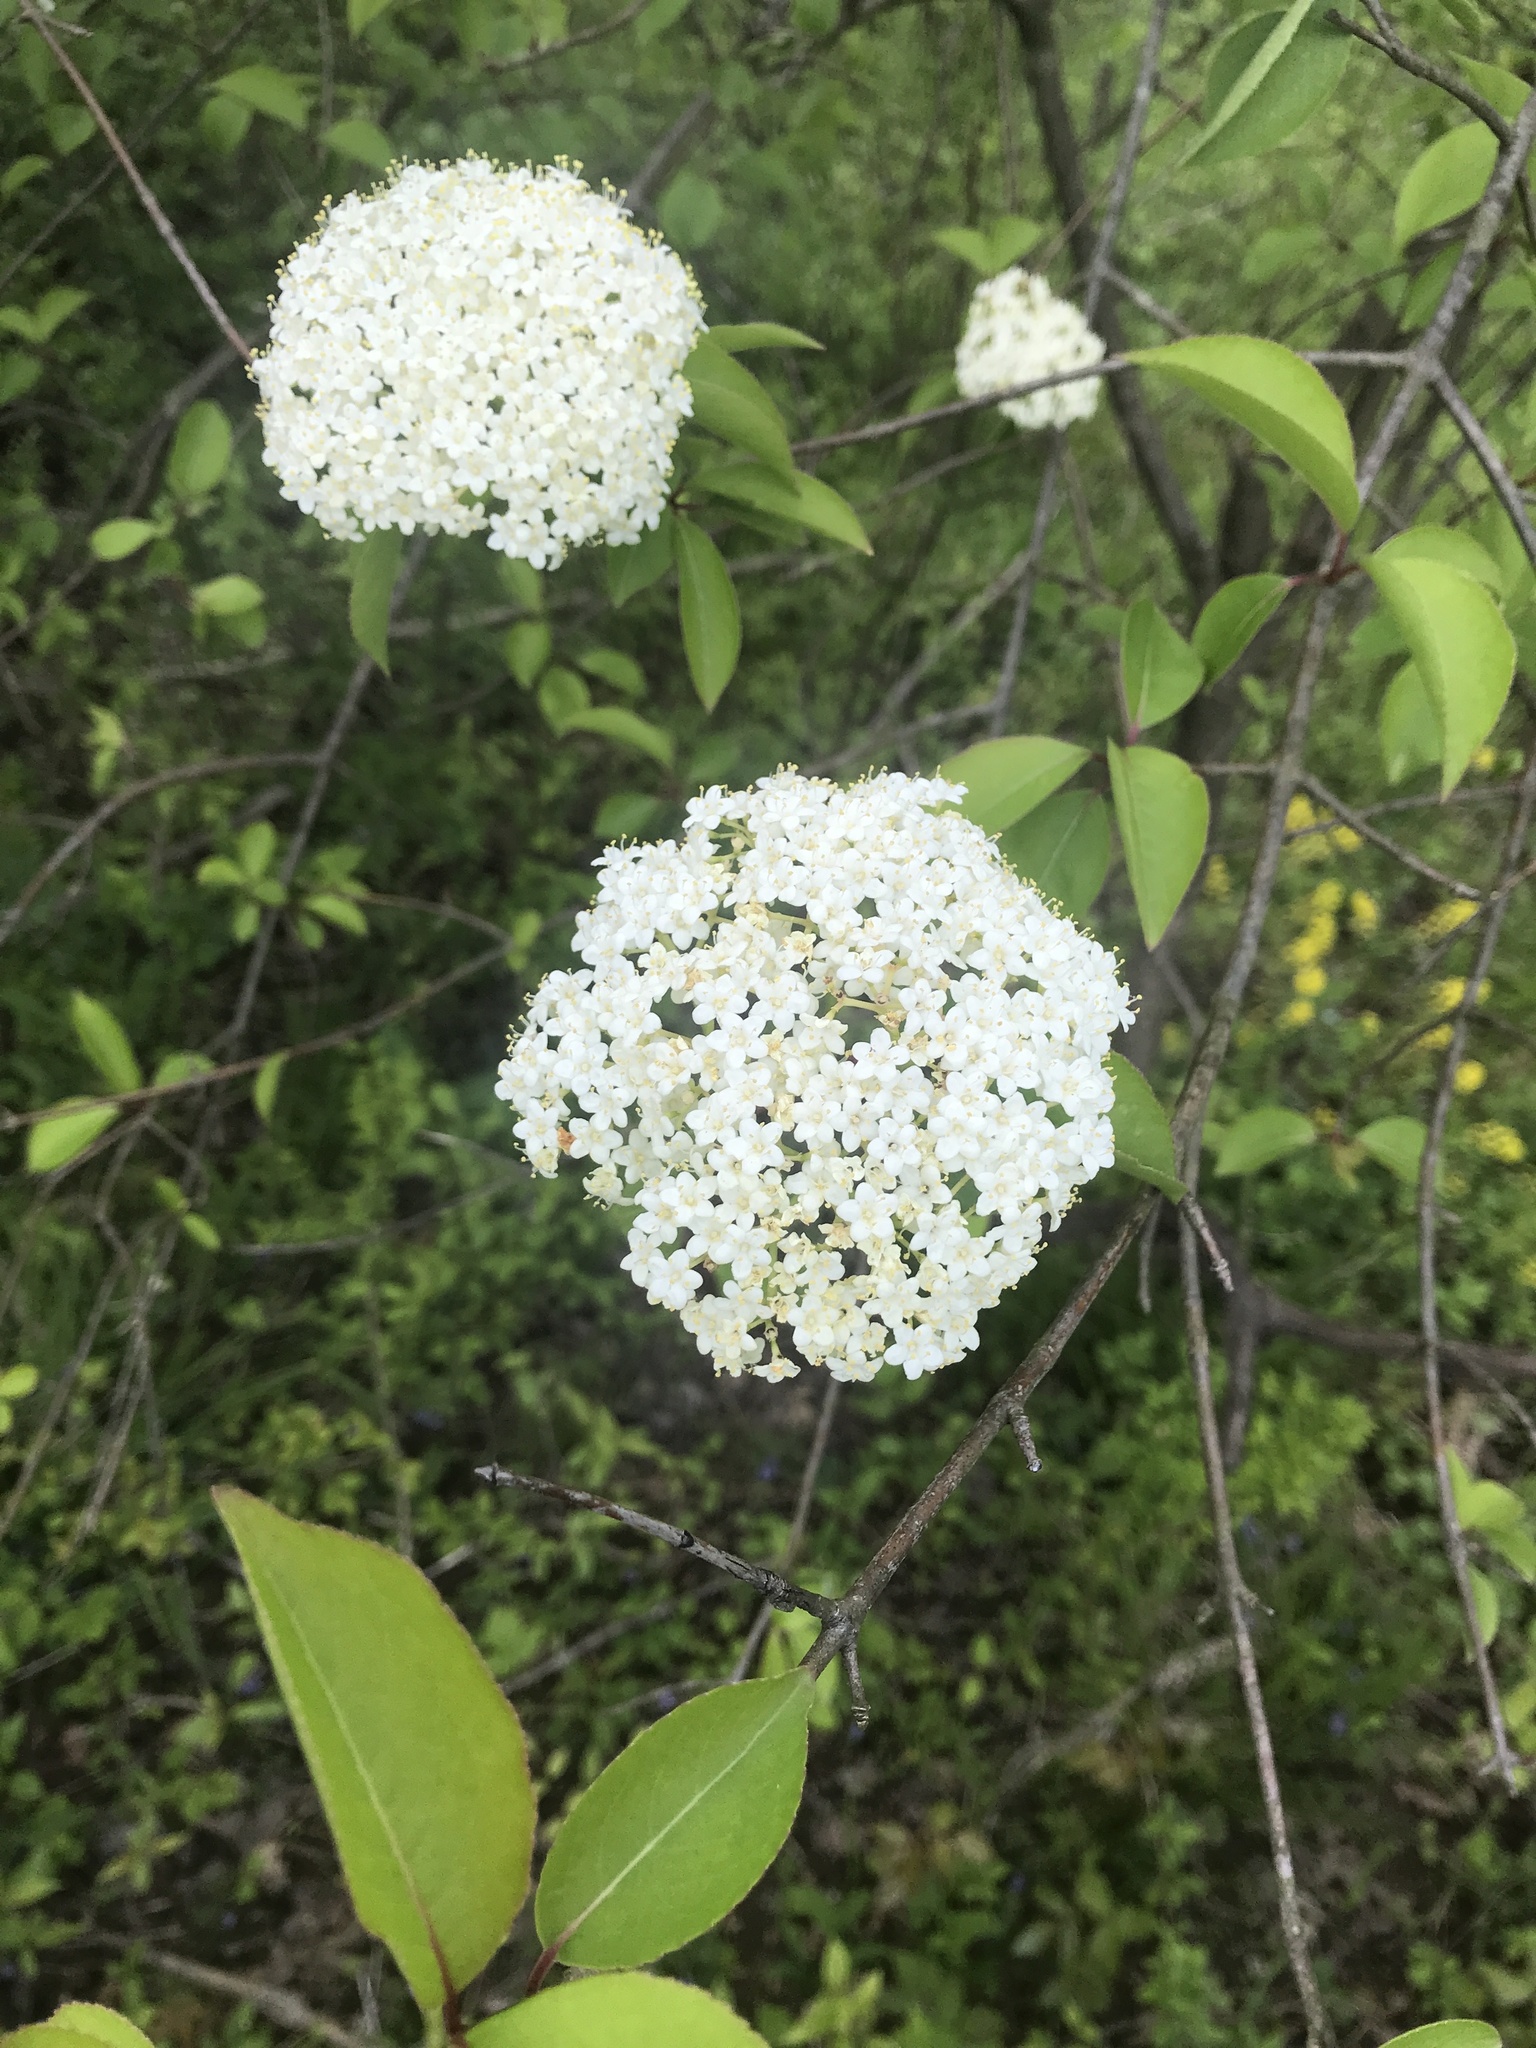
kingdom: Plantae
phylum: Tracheophyta
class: Magnoliopsida
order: Dipsacales
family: Viburnaceae
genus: Viburnum
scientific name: Viburnum prunifolium
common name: Black haw
